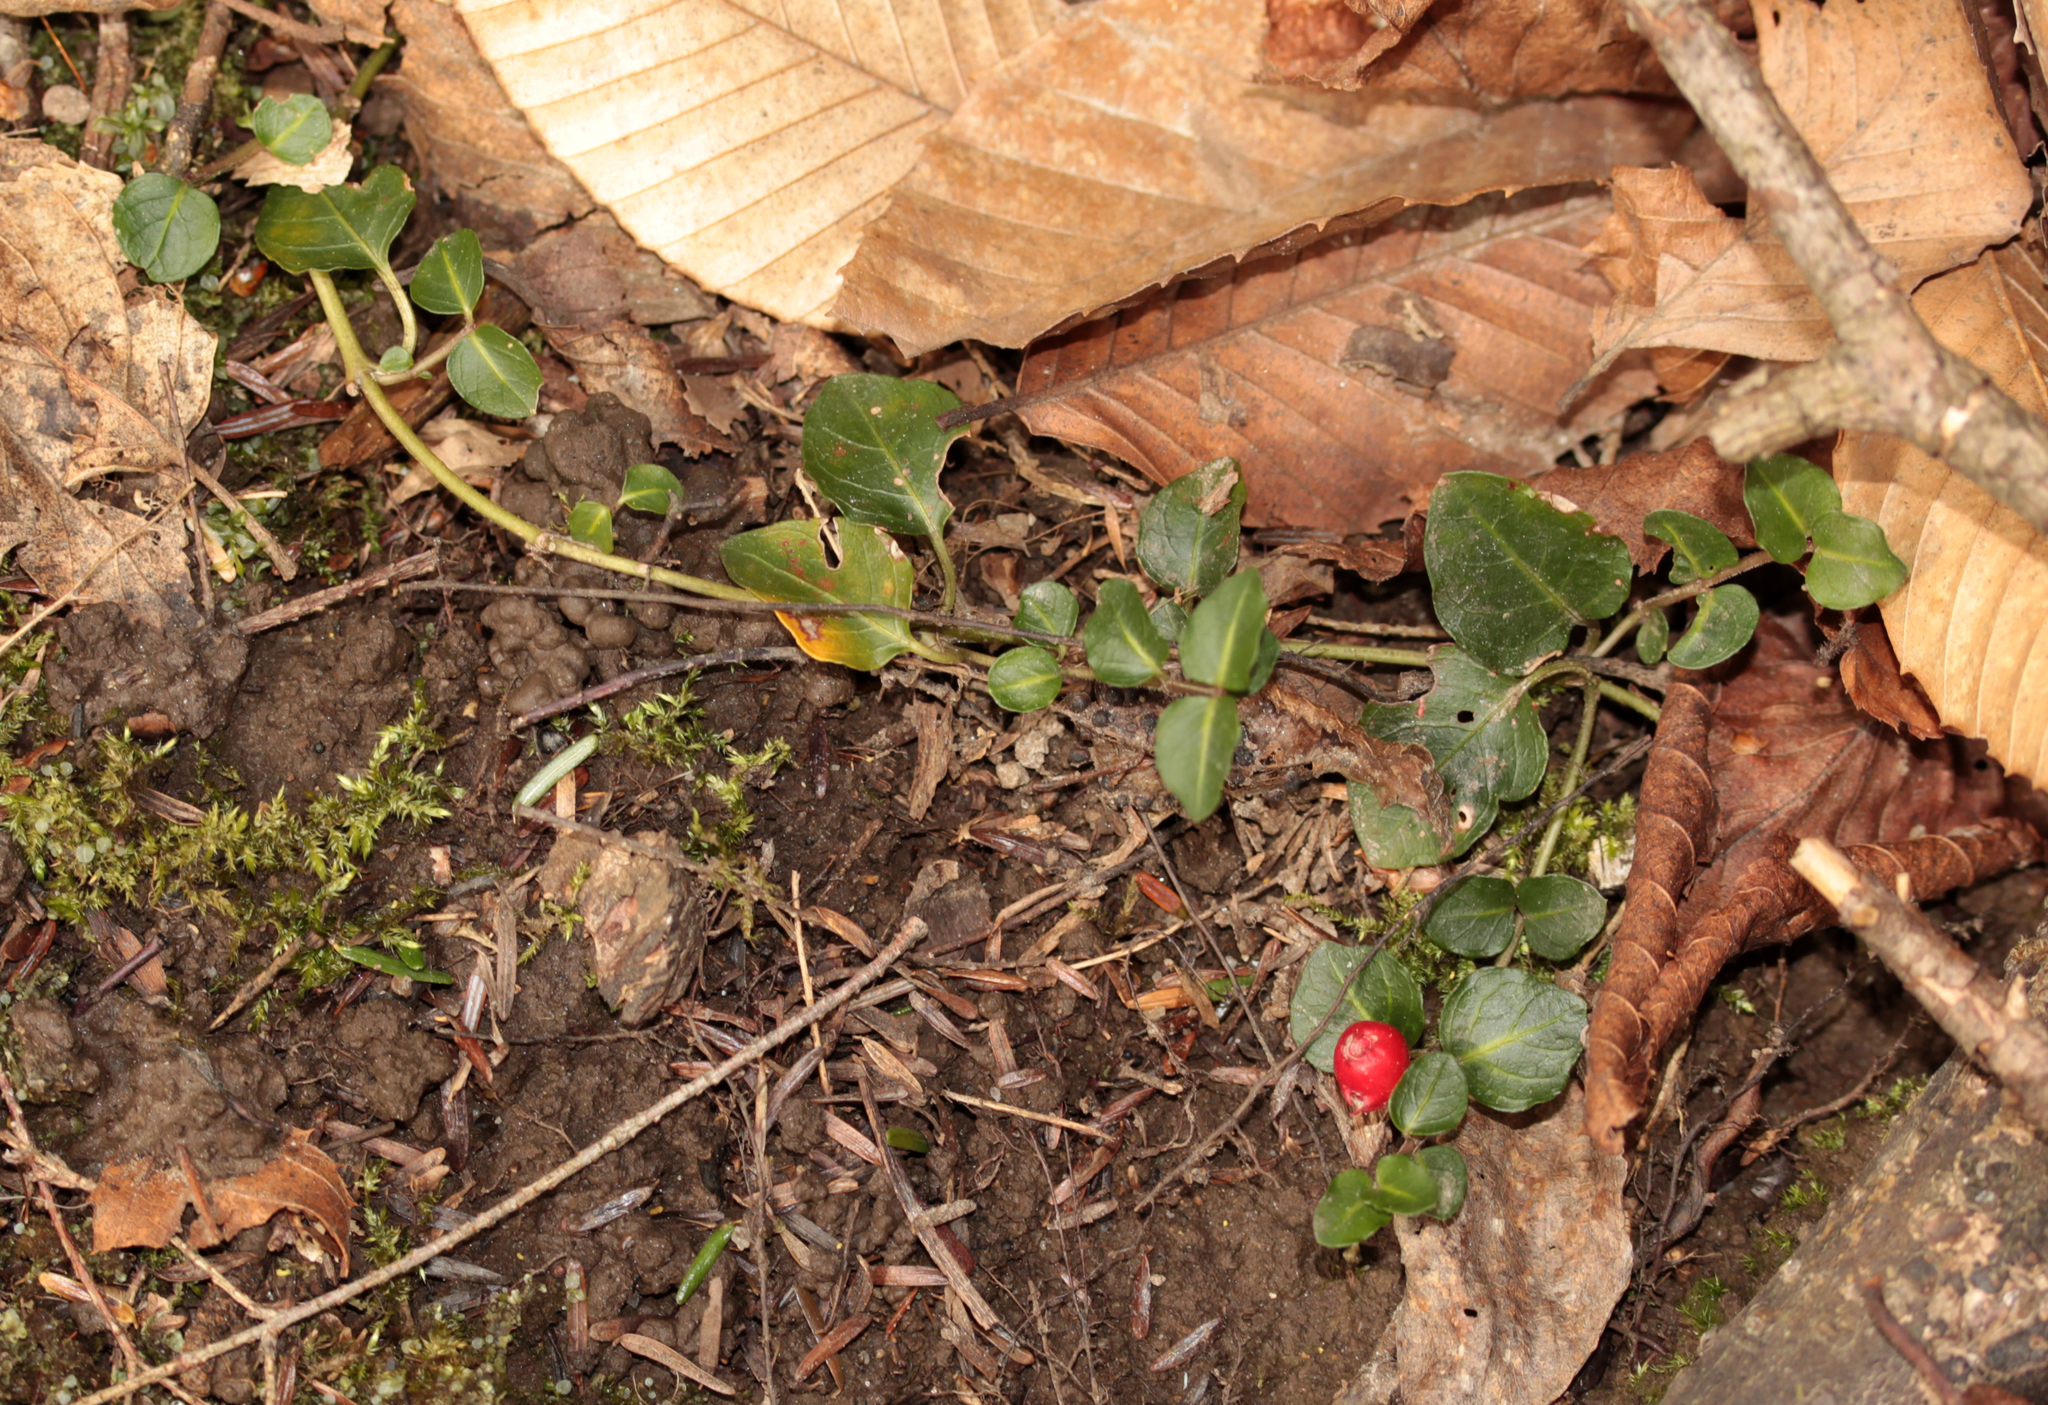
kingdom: Plantae
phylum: Tracheophyta
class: Magnoliopsida
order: Gentianales
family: Rubiaceae
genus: Mitchella
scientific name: Mitchella repens
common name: Partridge-berry
